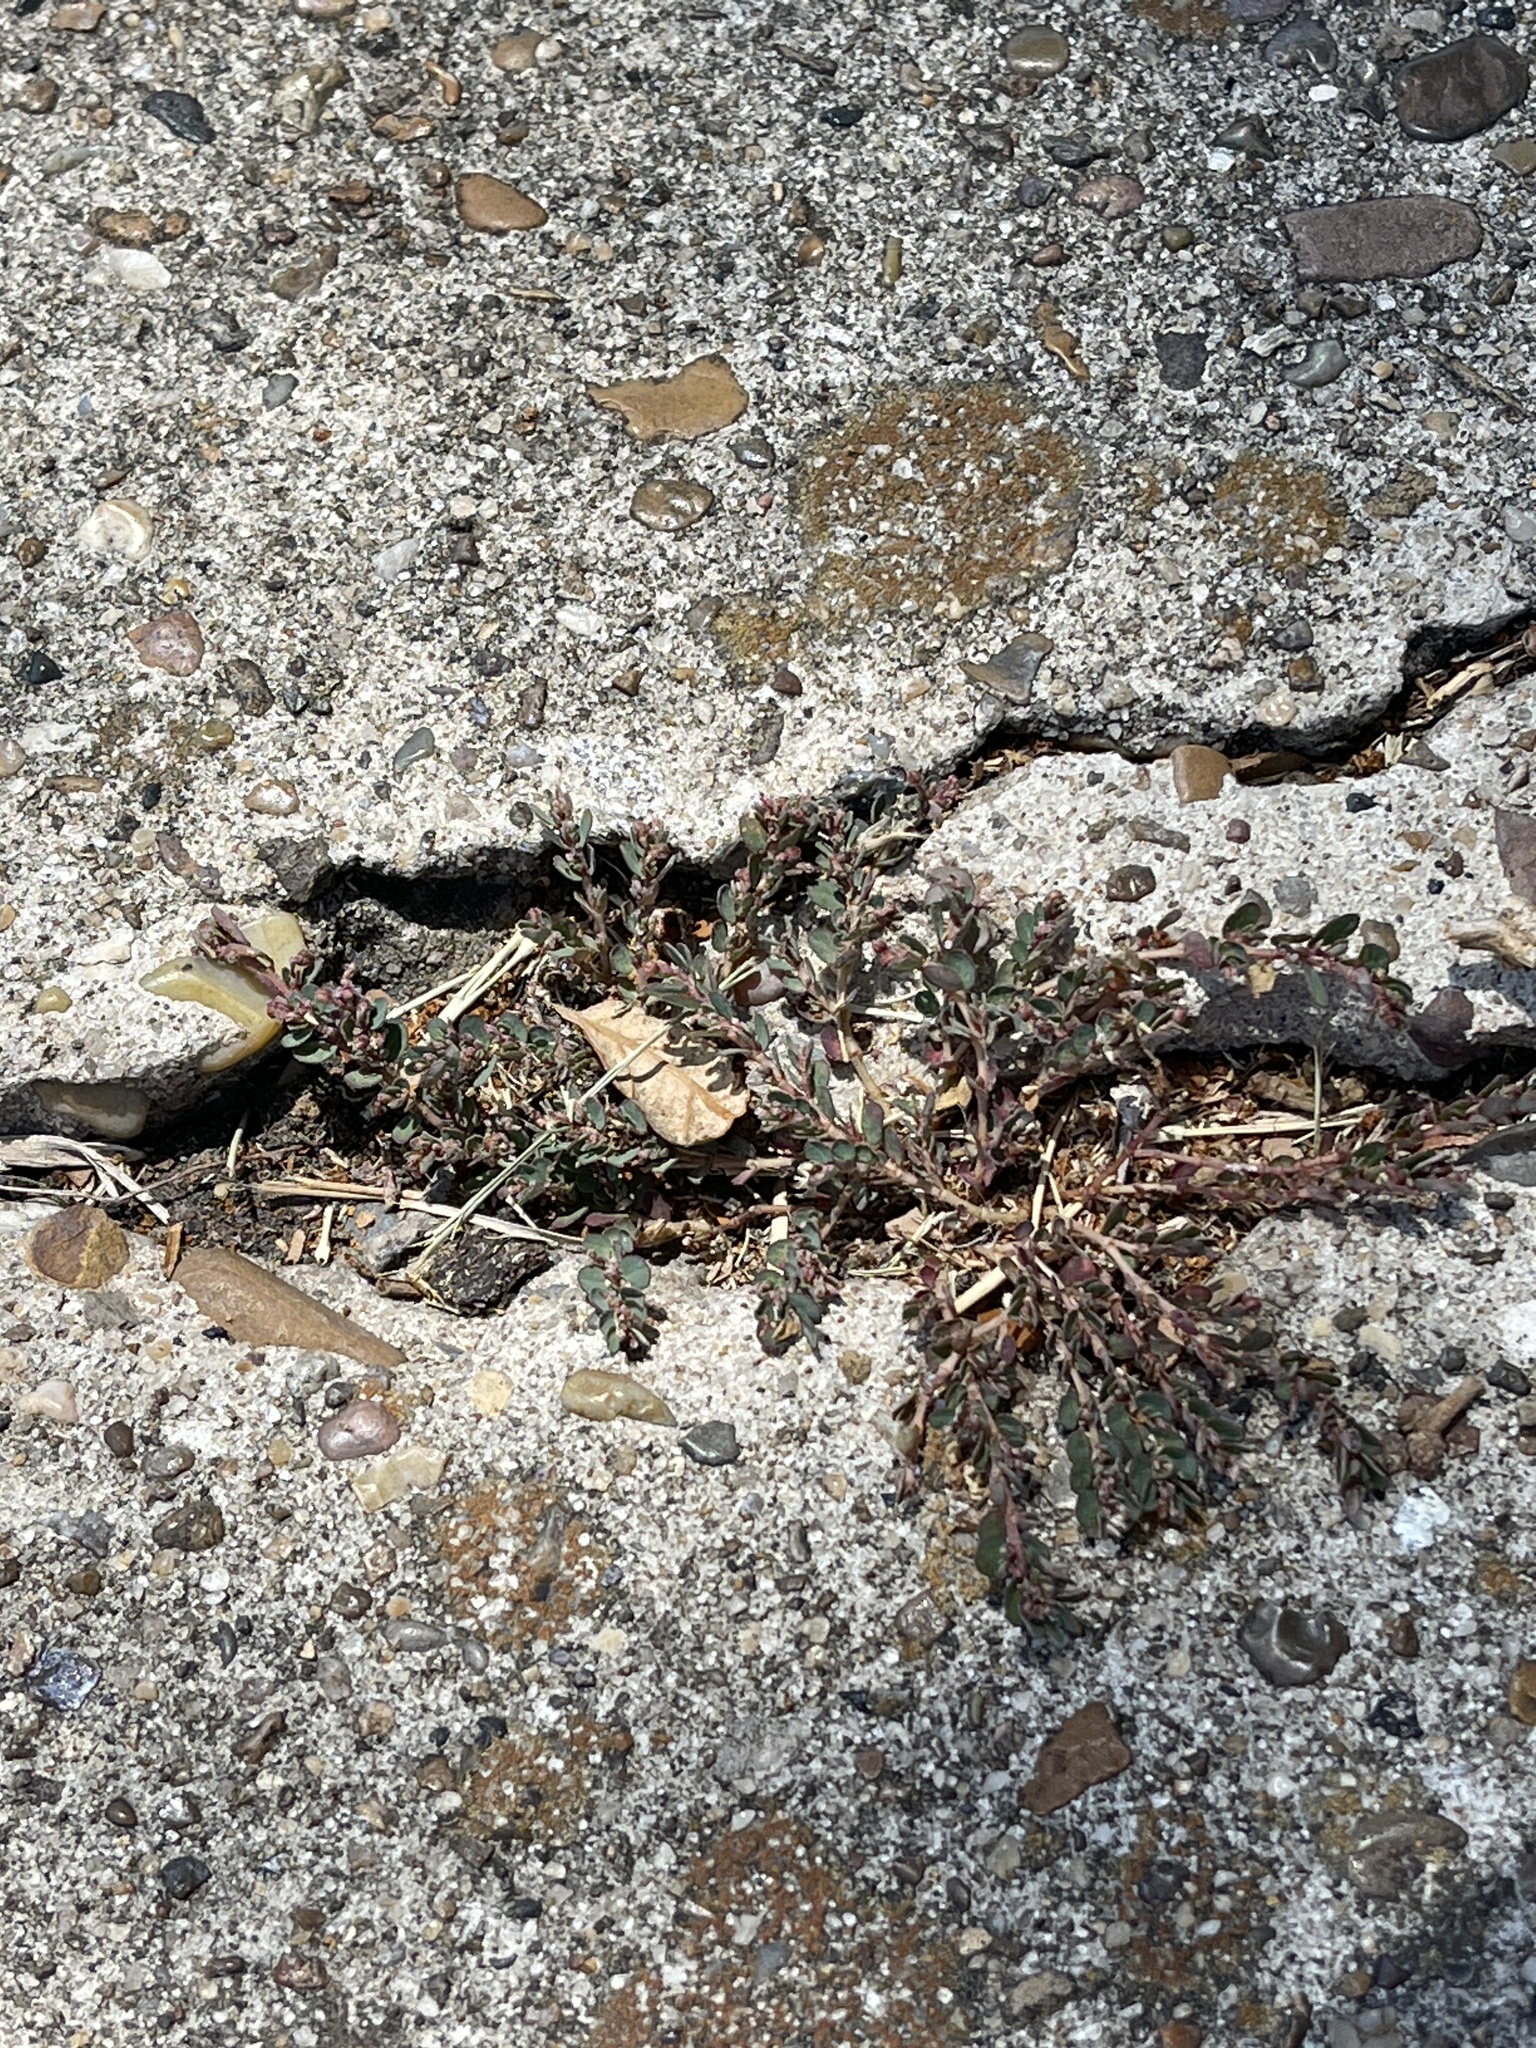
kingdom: Plantae
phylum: Tracheophyta
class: Magnoliopsida
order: Malpighiales
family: Euphorbiaceae
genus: Euphorbia
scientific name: Euphorbia prostrata
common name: Prostrate sandmat
